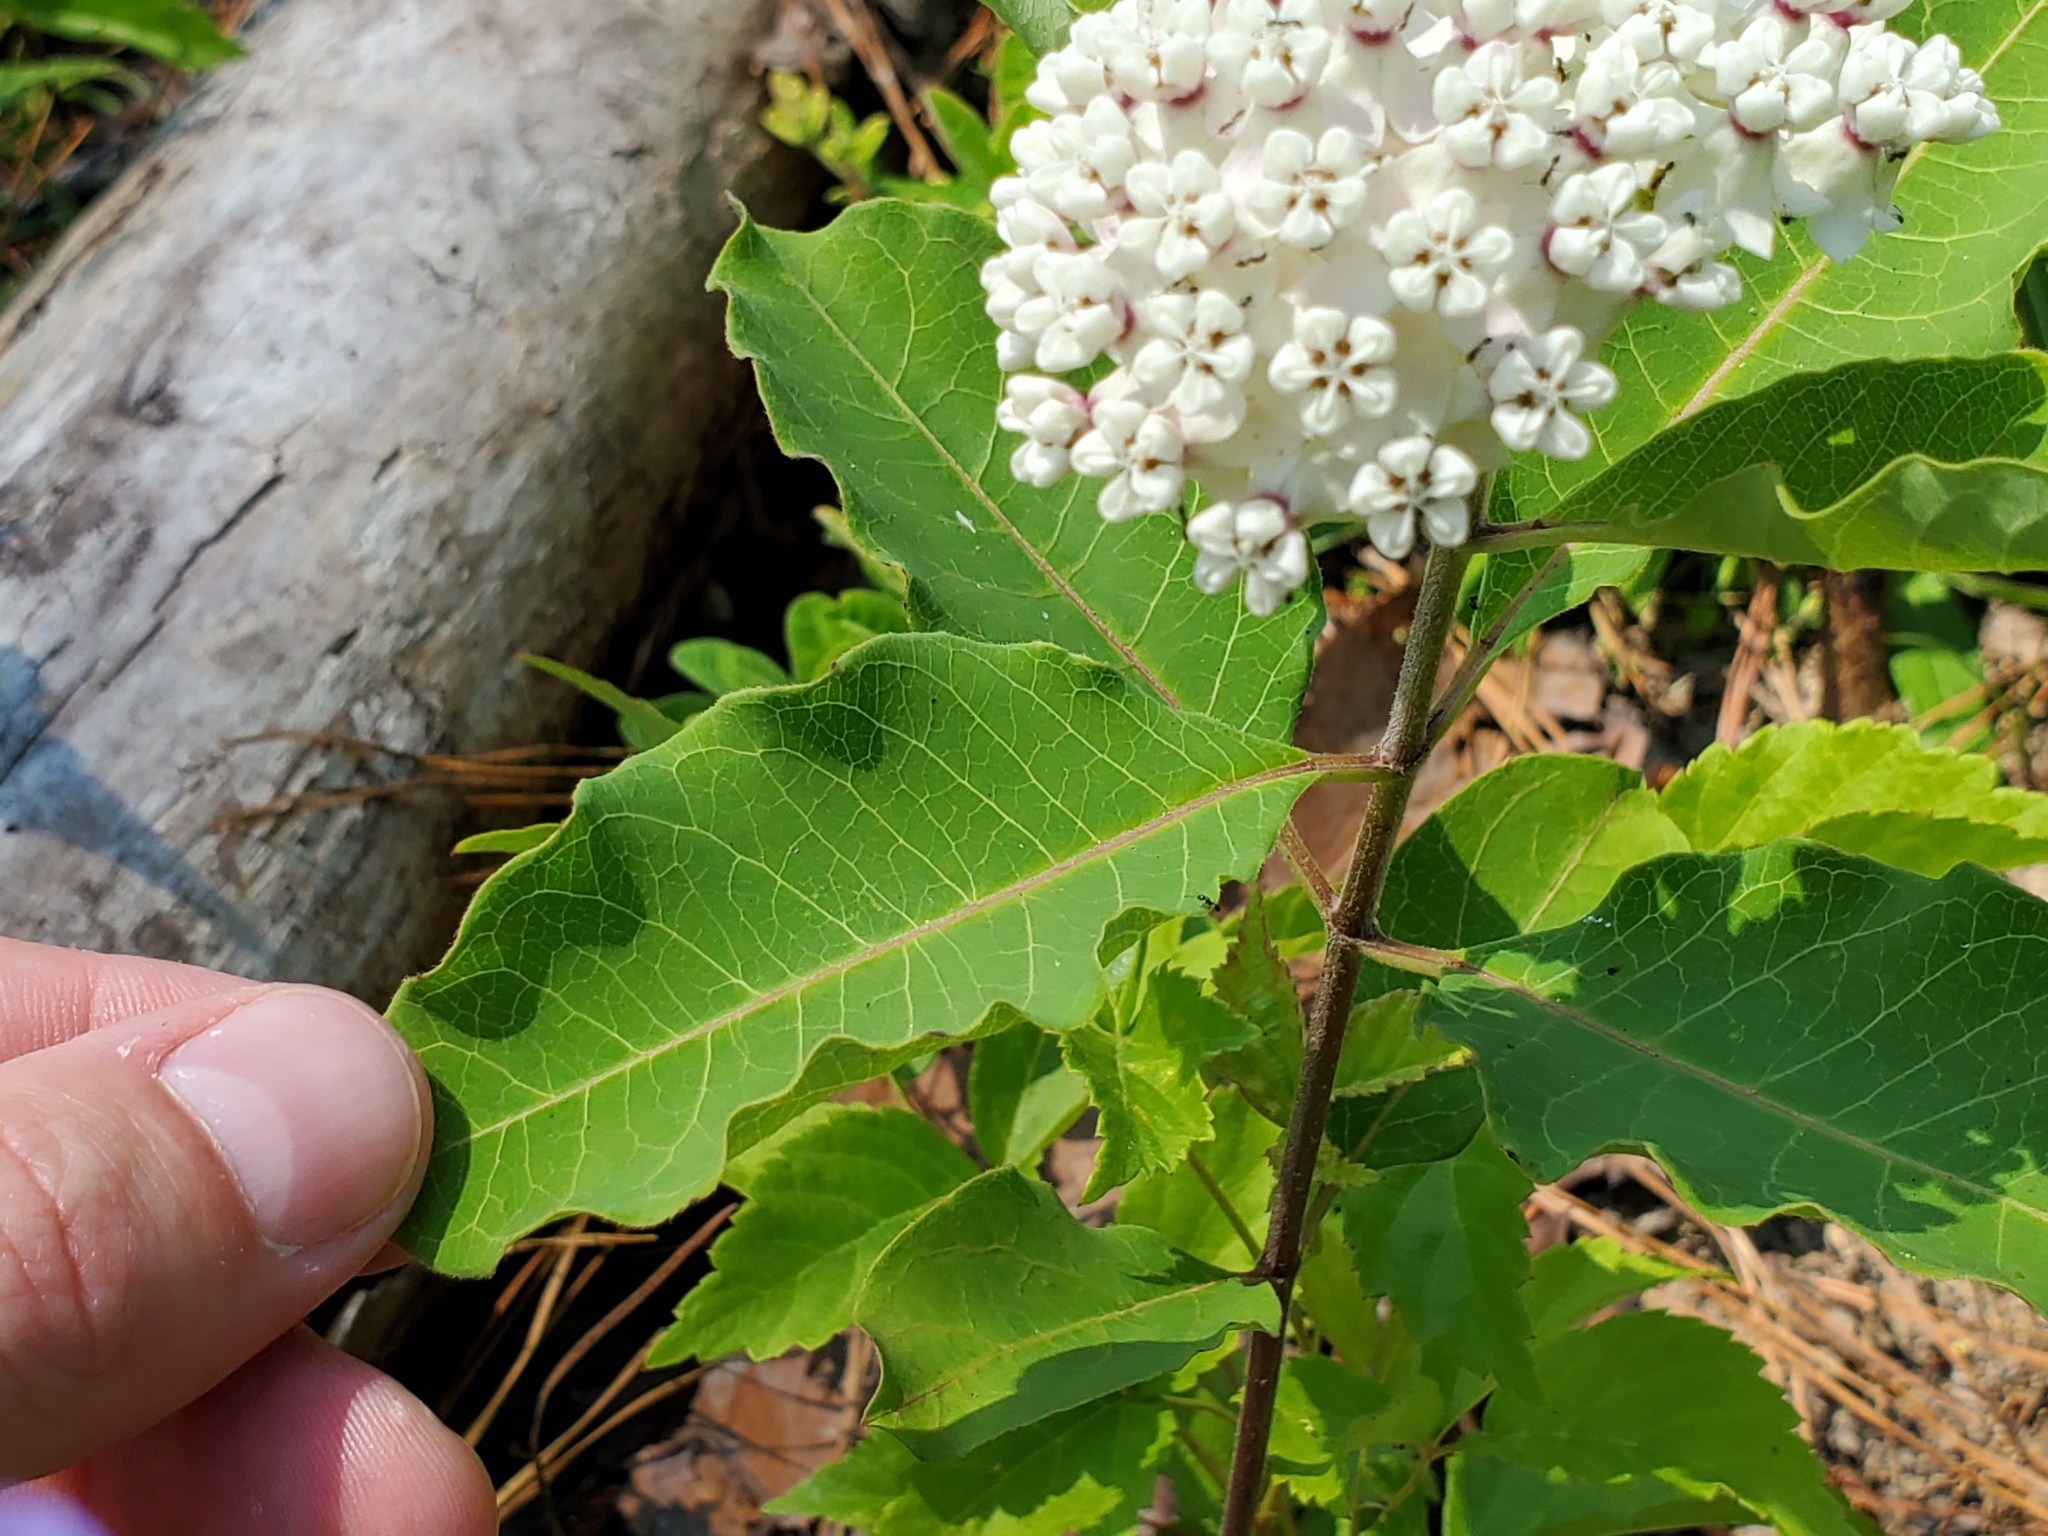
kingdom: Plantae
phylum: Tracheophyta
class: Magnoliopsida
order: Gentianales
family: Apocynaceae
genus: Asclepias
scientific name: Asclepias variegata
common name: Variegated milkweed
